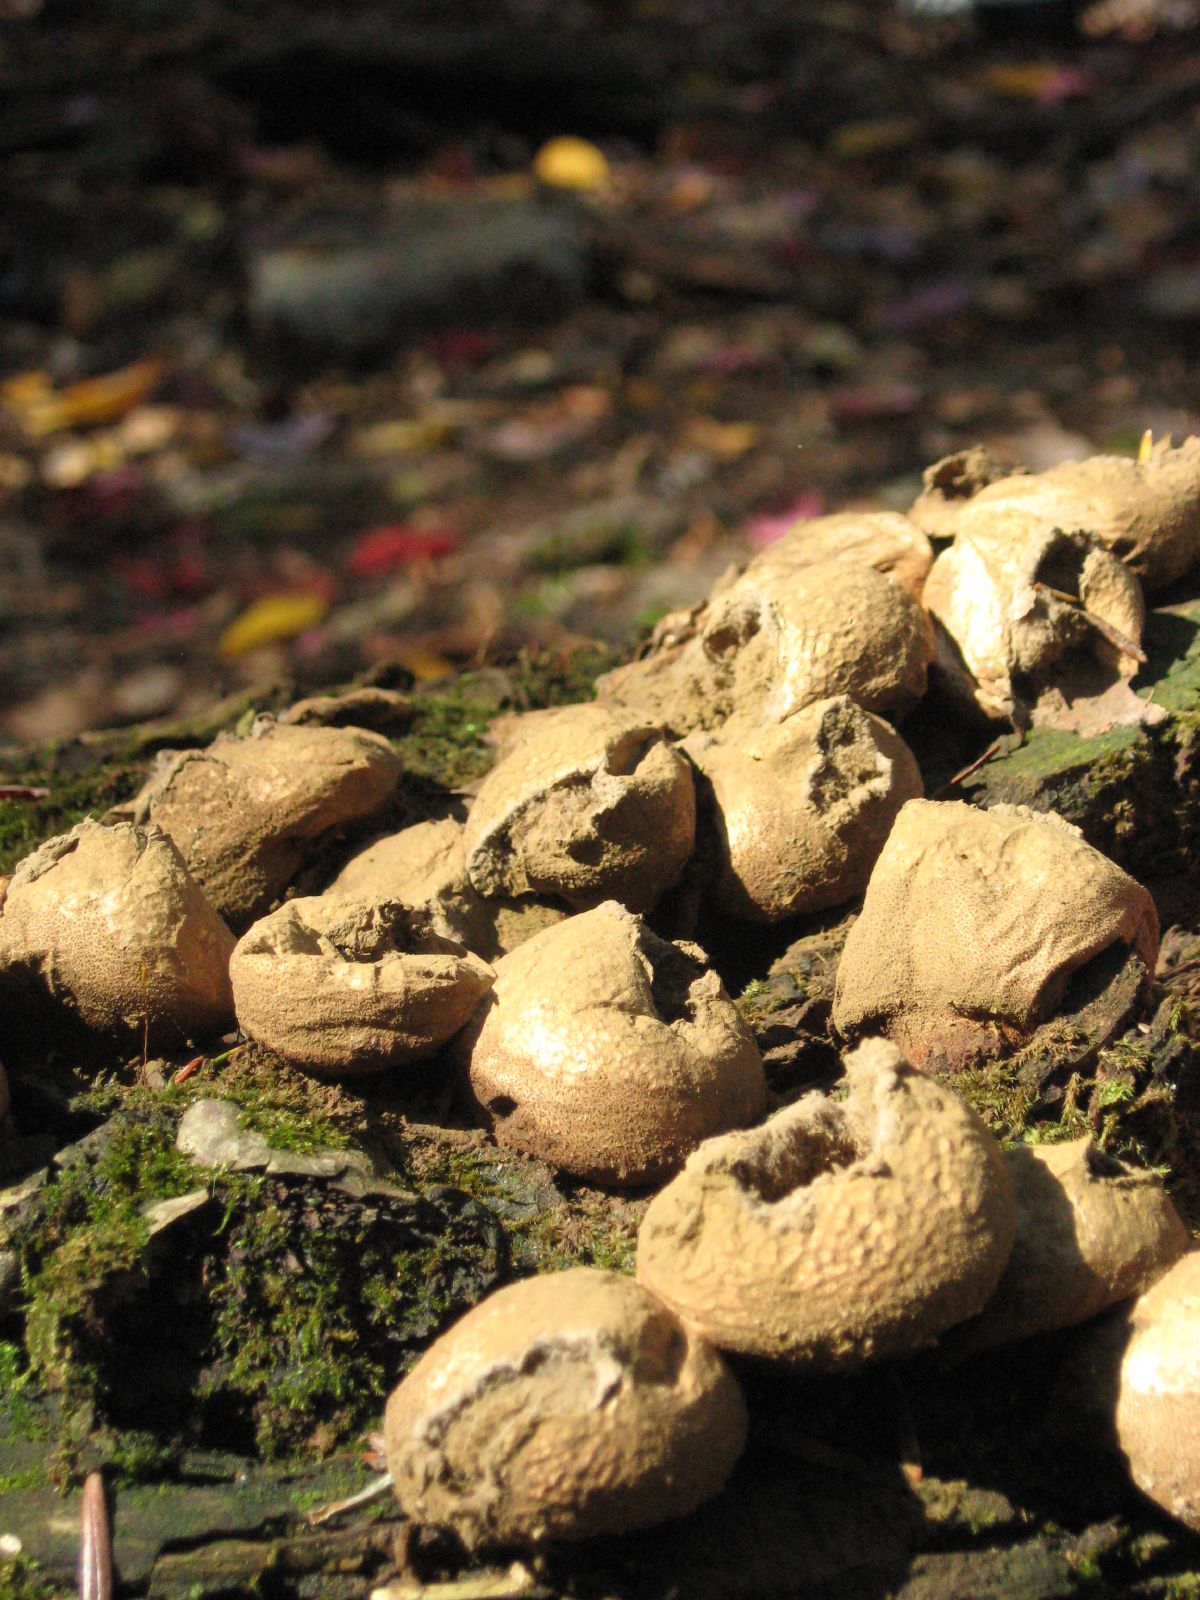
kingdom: Fungi
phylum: Basidiomycota
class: Agaricomycetes
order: Agaricales
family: Lycoperdaceae
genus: Lycoperdon
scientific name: Lycoperdon perlatum
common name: Common puffball
